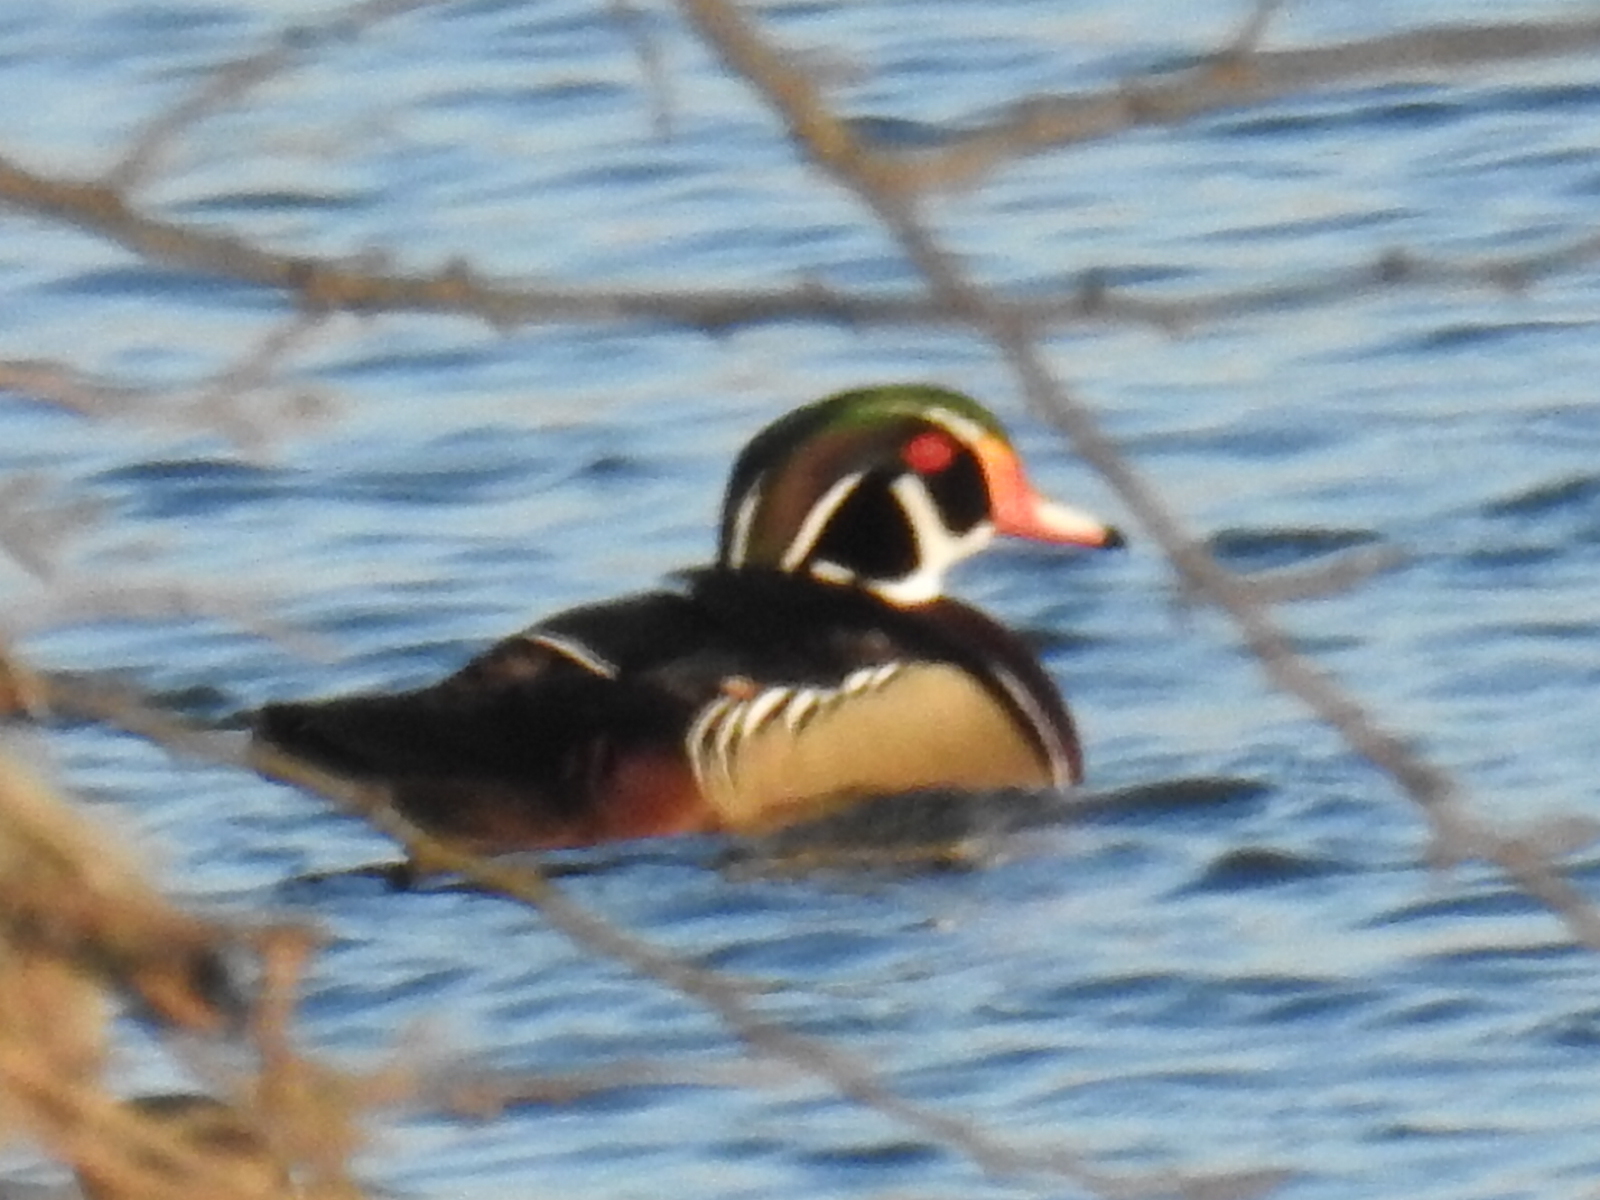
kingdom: Animalia
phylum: Chordata
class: Aves
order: Anseriformes
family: Anatidae
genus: Aix
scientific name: Aix sponsa
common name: Wood duck
